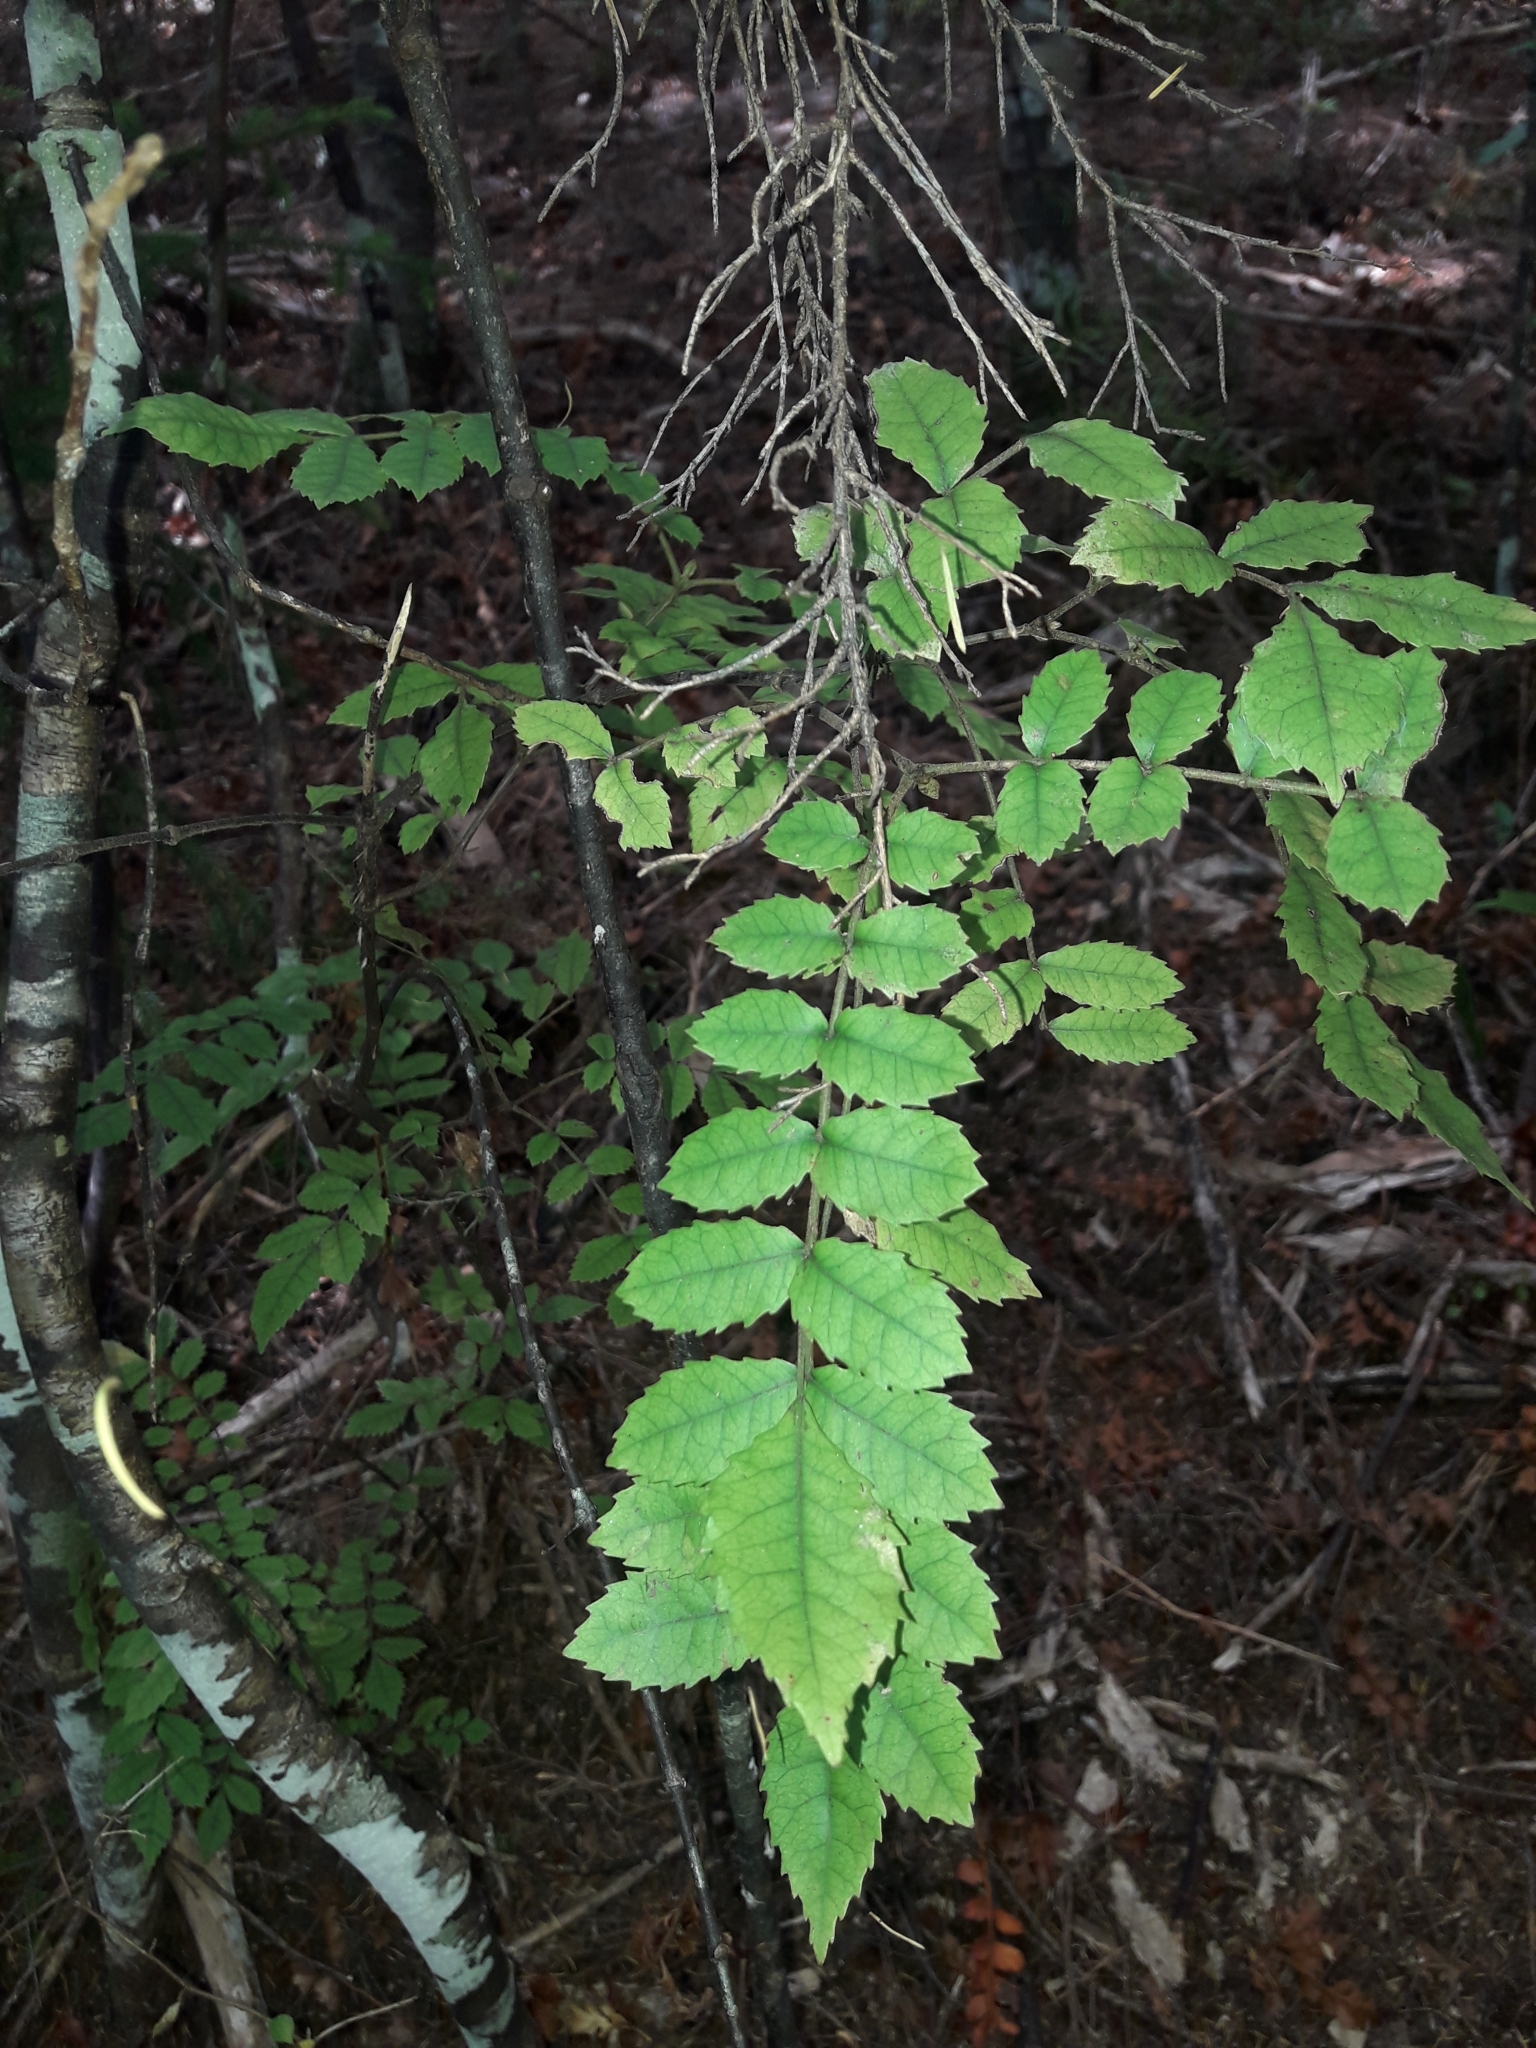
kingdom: Plantae
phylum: Tracheophyta
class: Magnoliopsida
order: Oxalidales
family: Cunoniaceae
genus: Pterophylla
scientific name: Pterophylla sylvicola
